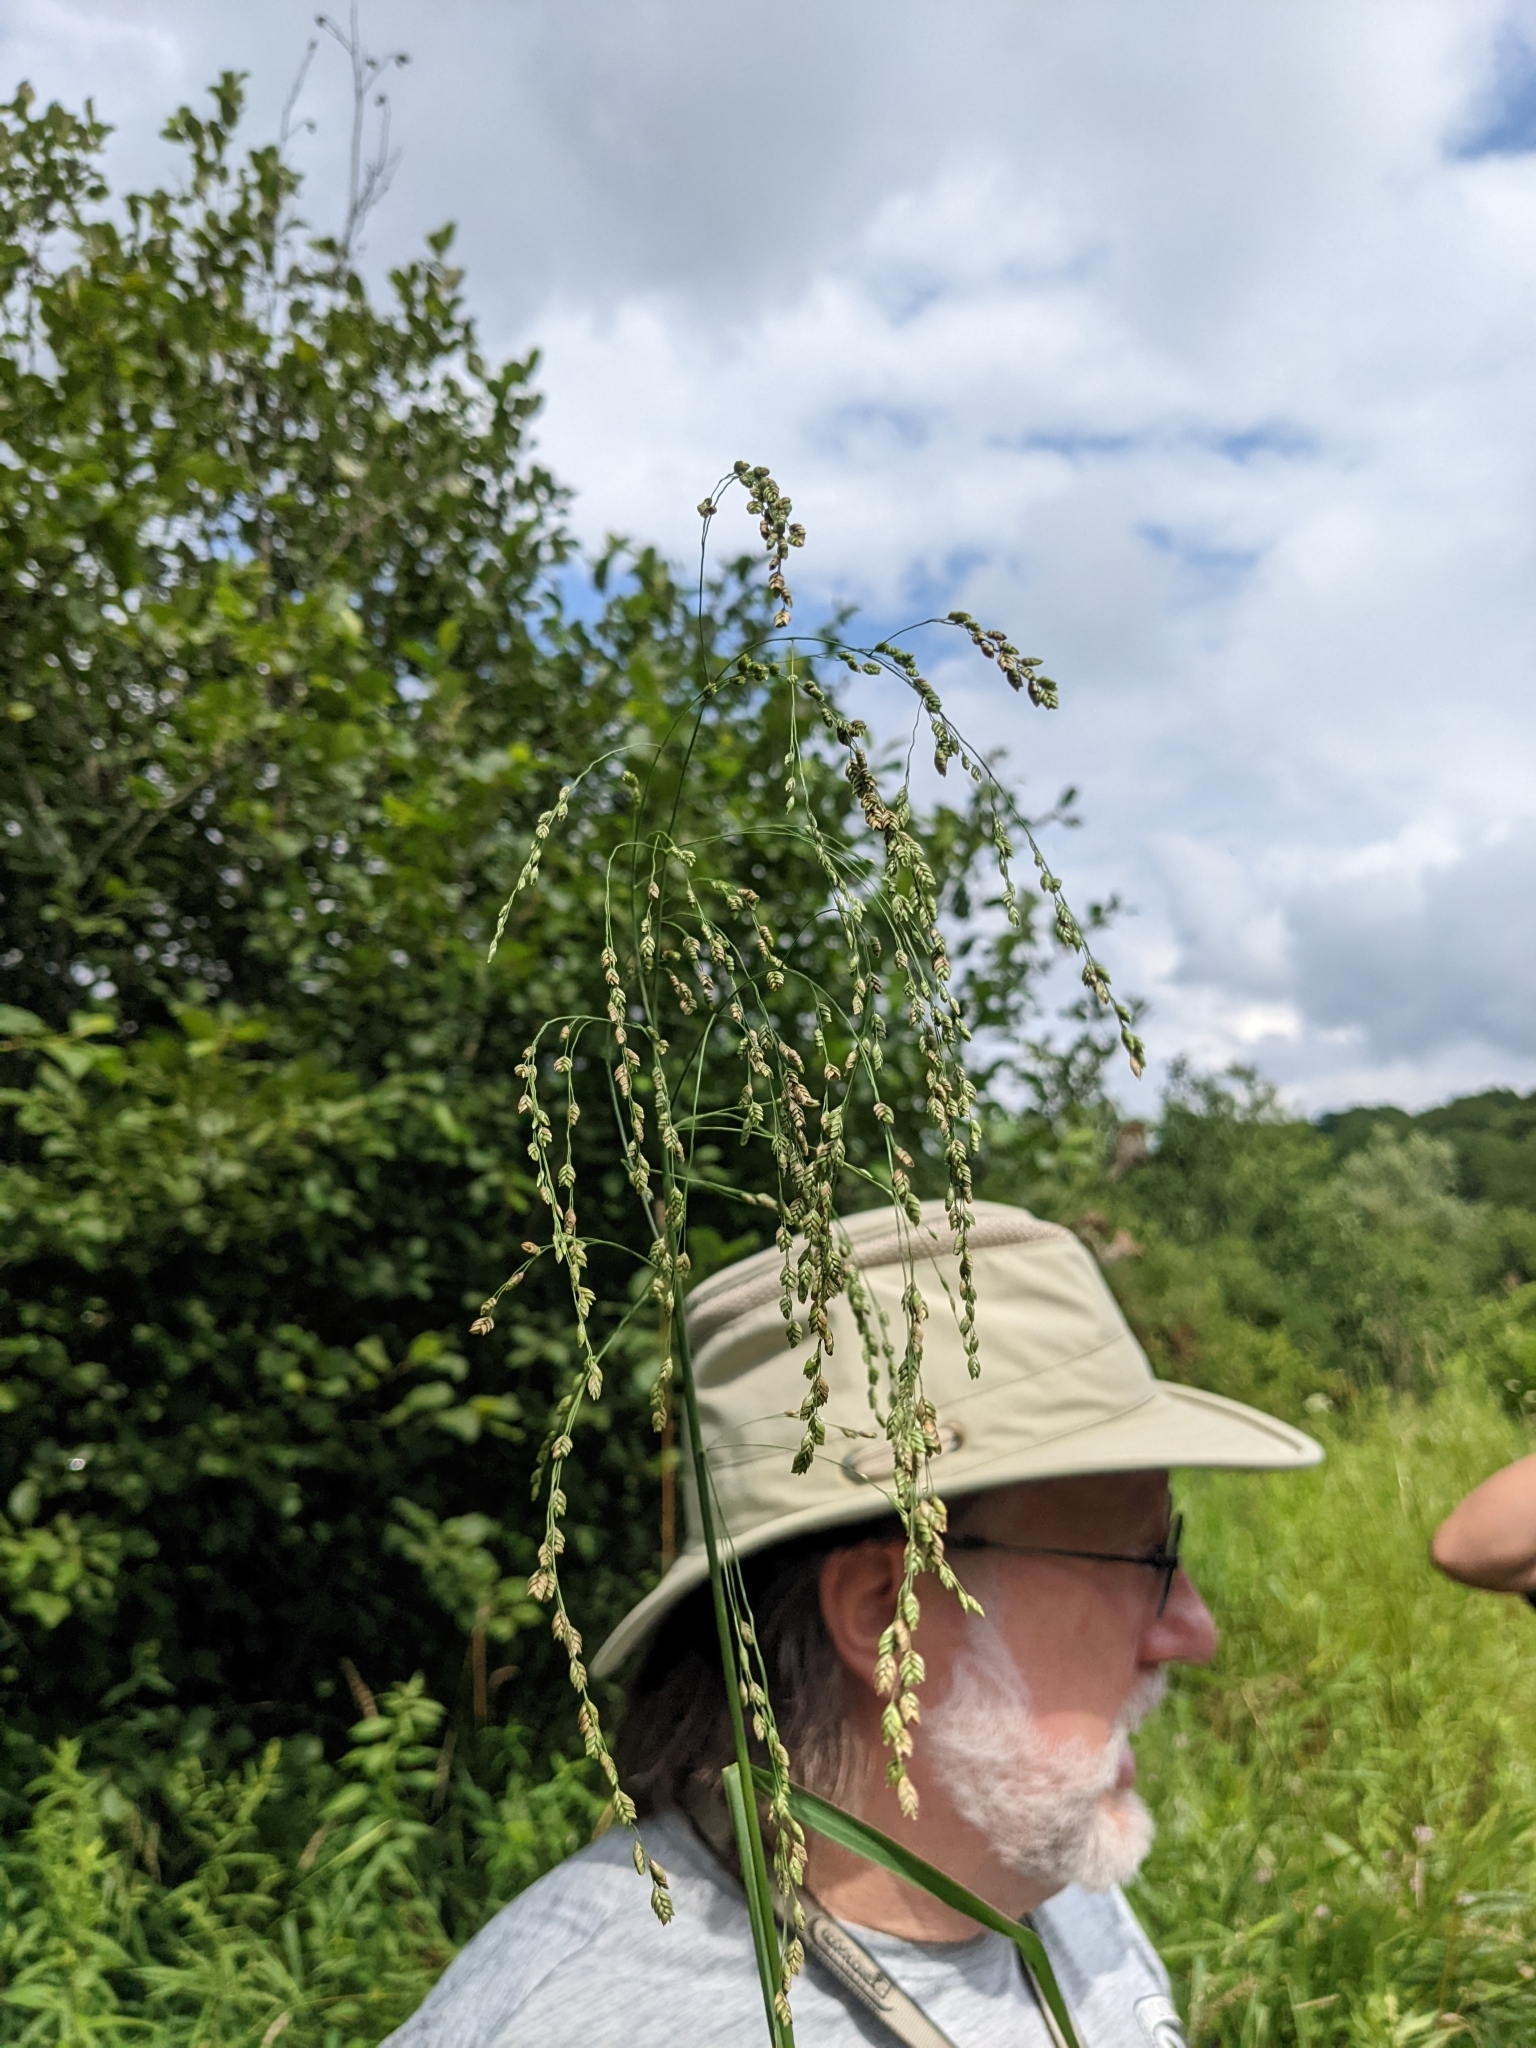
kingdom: Plantae
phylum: Tracheophyta
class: Liliopsida
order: Poales
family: Poaceae
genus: Glyceria
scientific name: Glyceria canadensis
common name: Canada mannagrass
